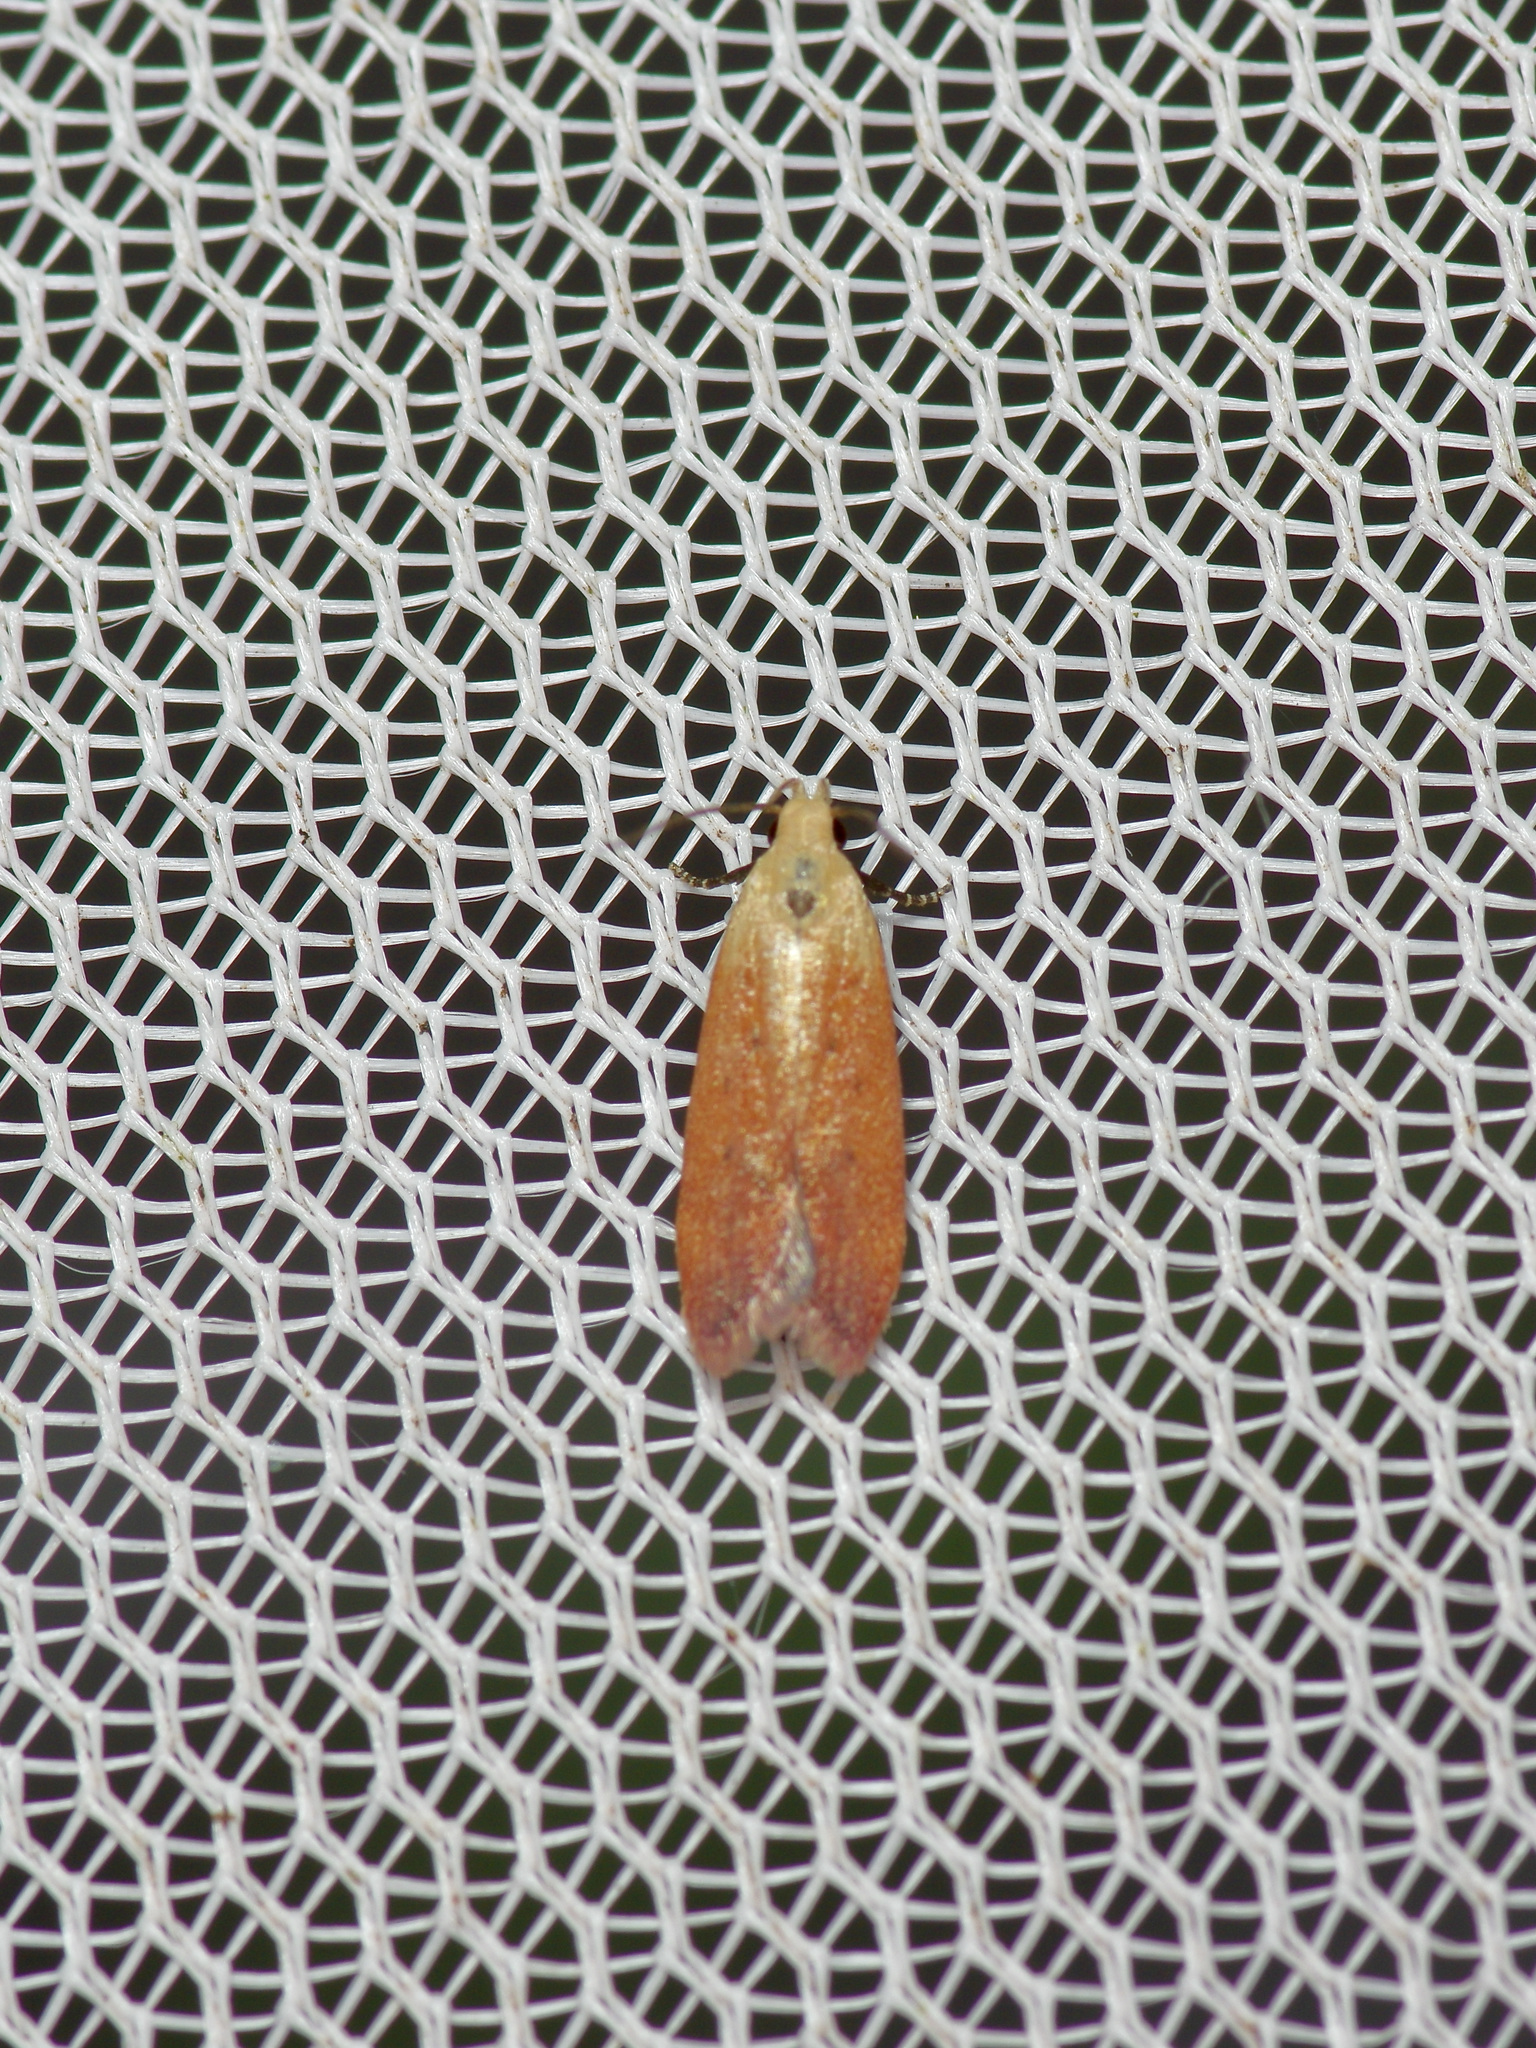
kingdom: Animalia
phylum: Arthropoda
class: Insecta
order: Lepidoptera
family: Gelechiidae
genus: Anacampsis
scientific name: Anacampsis fullonella
